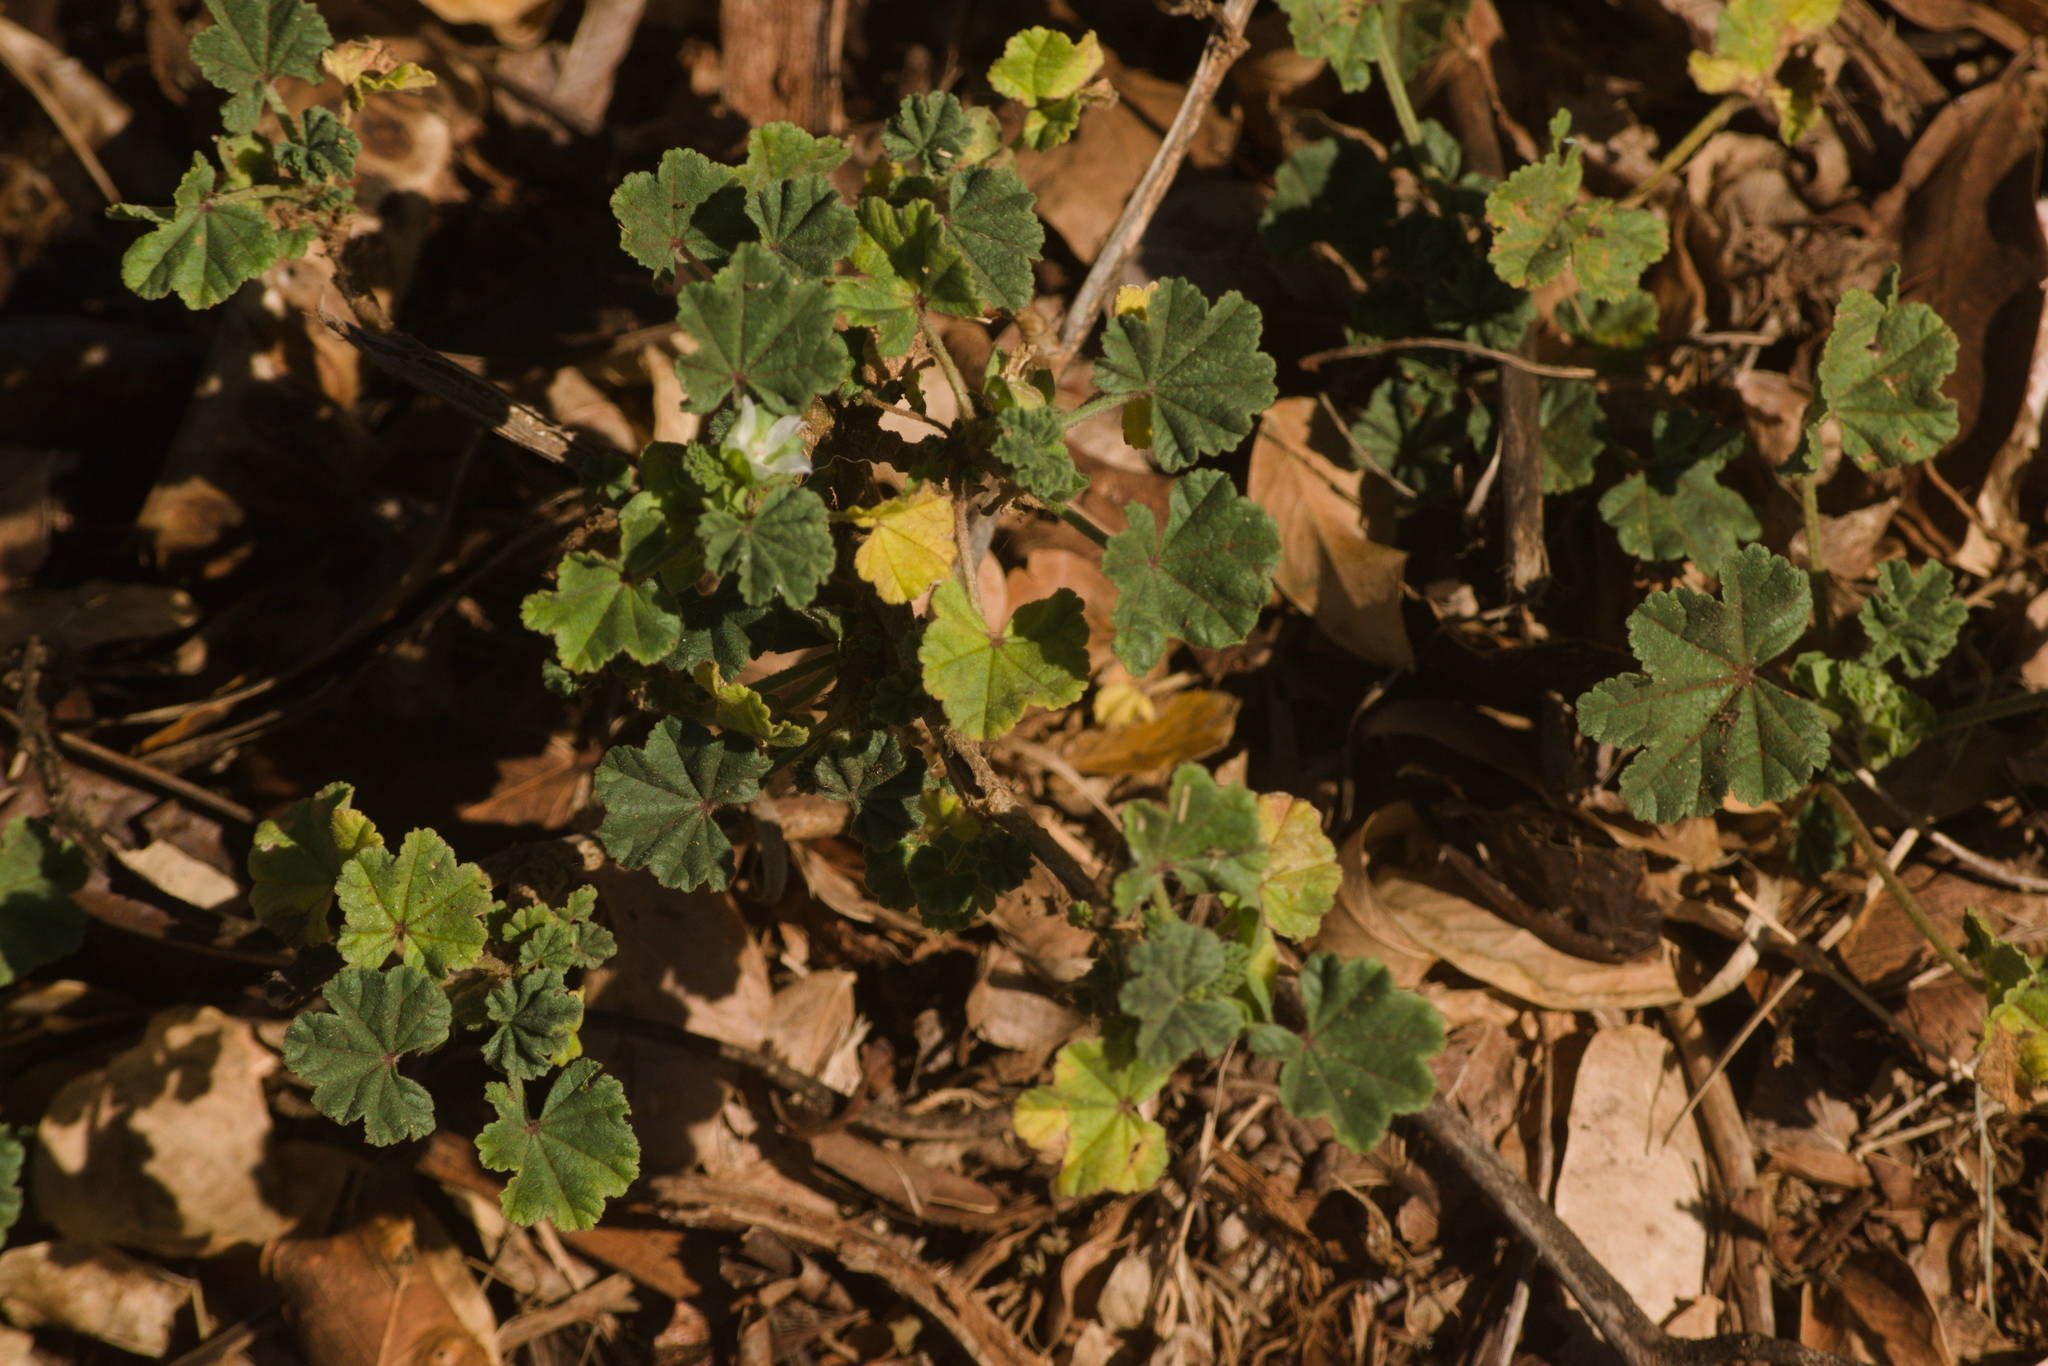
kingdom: Plantae
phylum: Tracheophyta
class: Magnoliopsida
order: Malvales
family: Malvaceae
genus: Malva
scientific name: Malva parviflora
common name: Least mallow
